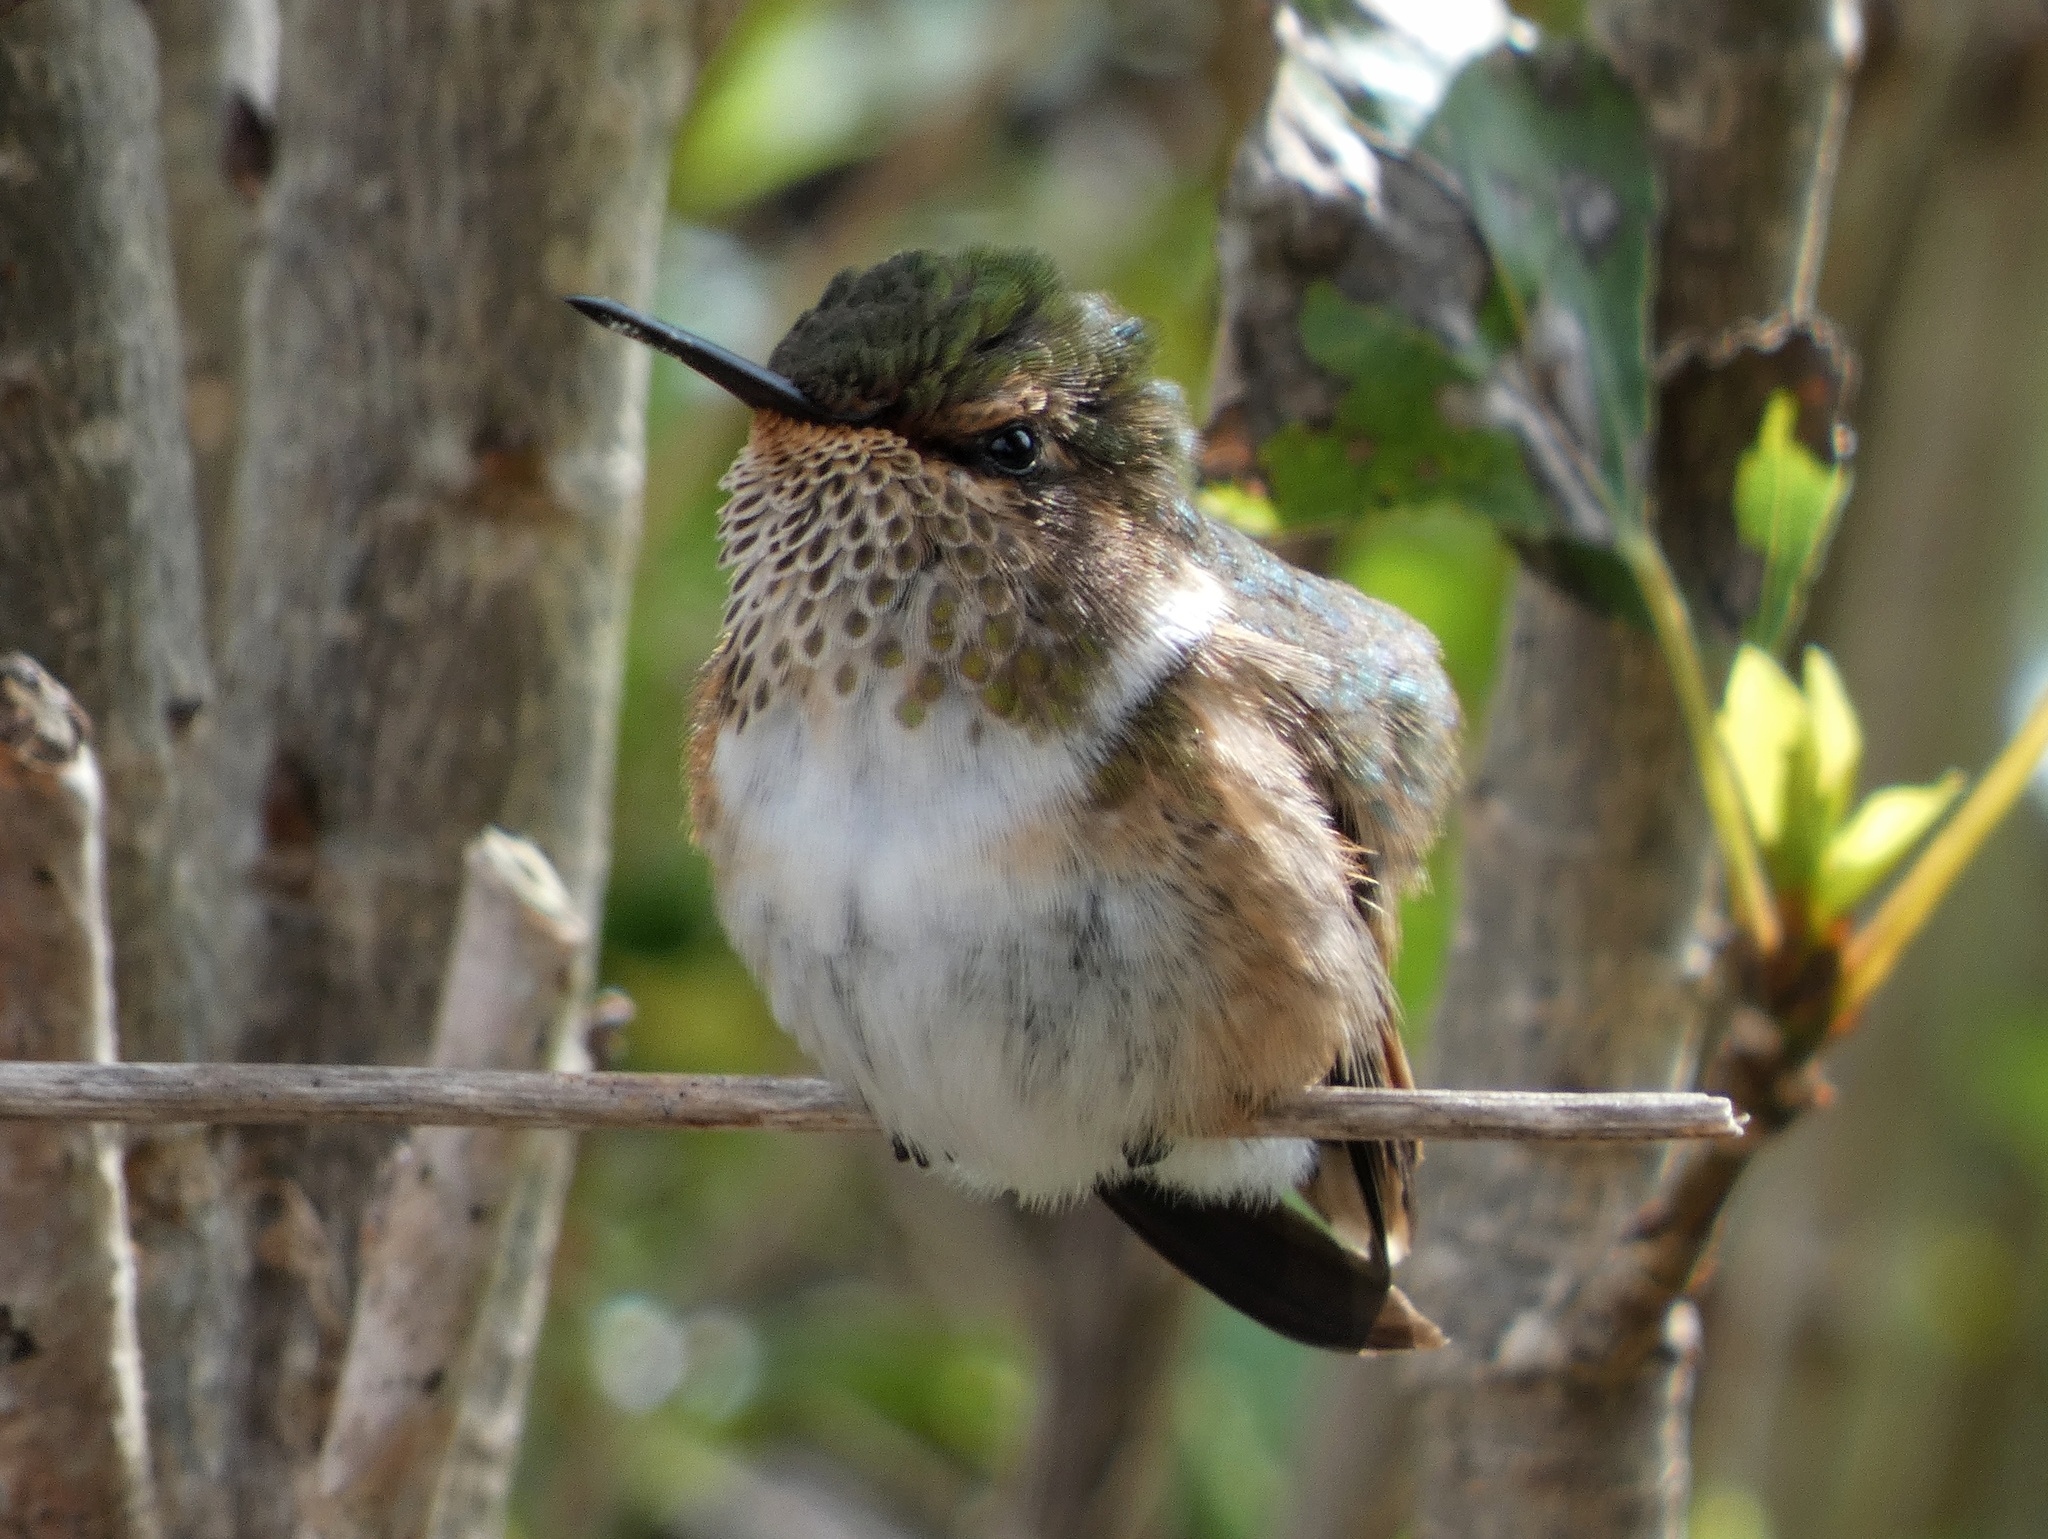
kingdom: Animalia
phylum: Chordata
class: Aves
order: Apodiformes
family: Trochilidae
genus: Selasphorus
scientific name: Selasphorus scintilla
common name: Scintillant hummingbird
